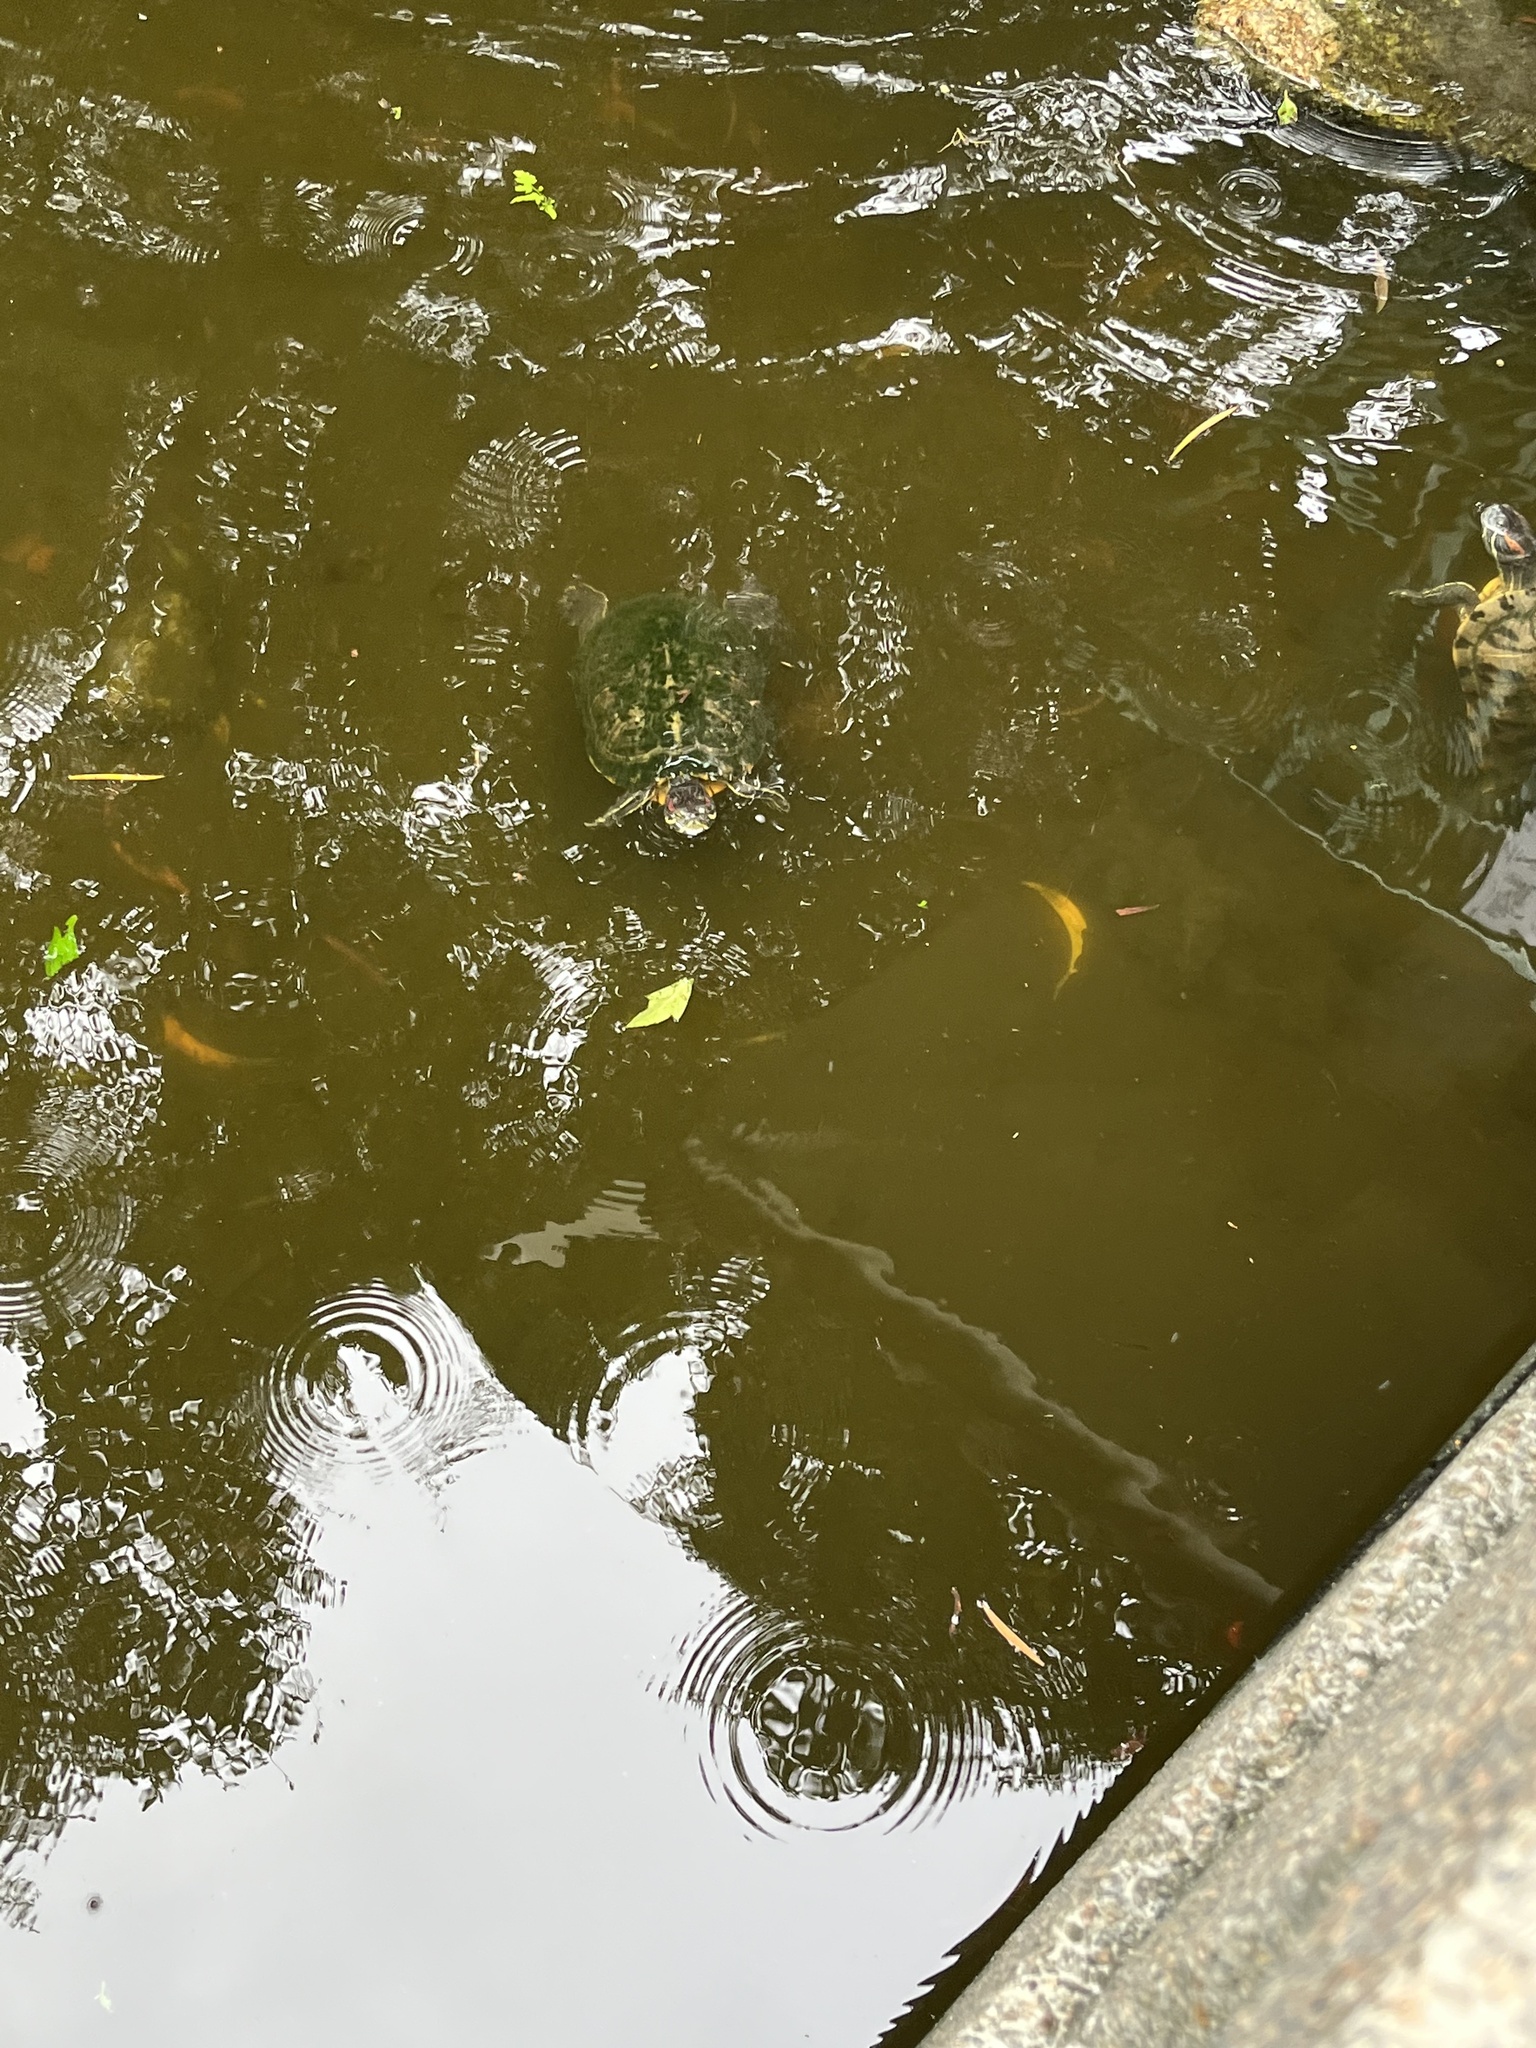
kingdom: Animalia
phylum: Chordata
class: Testudines
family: Emydidae
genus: Trachemys
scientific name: Trachemys scripta
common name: Slider
